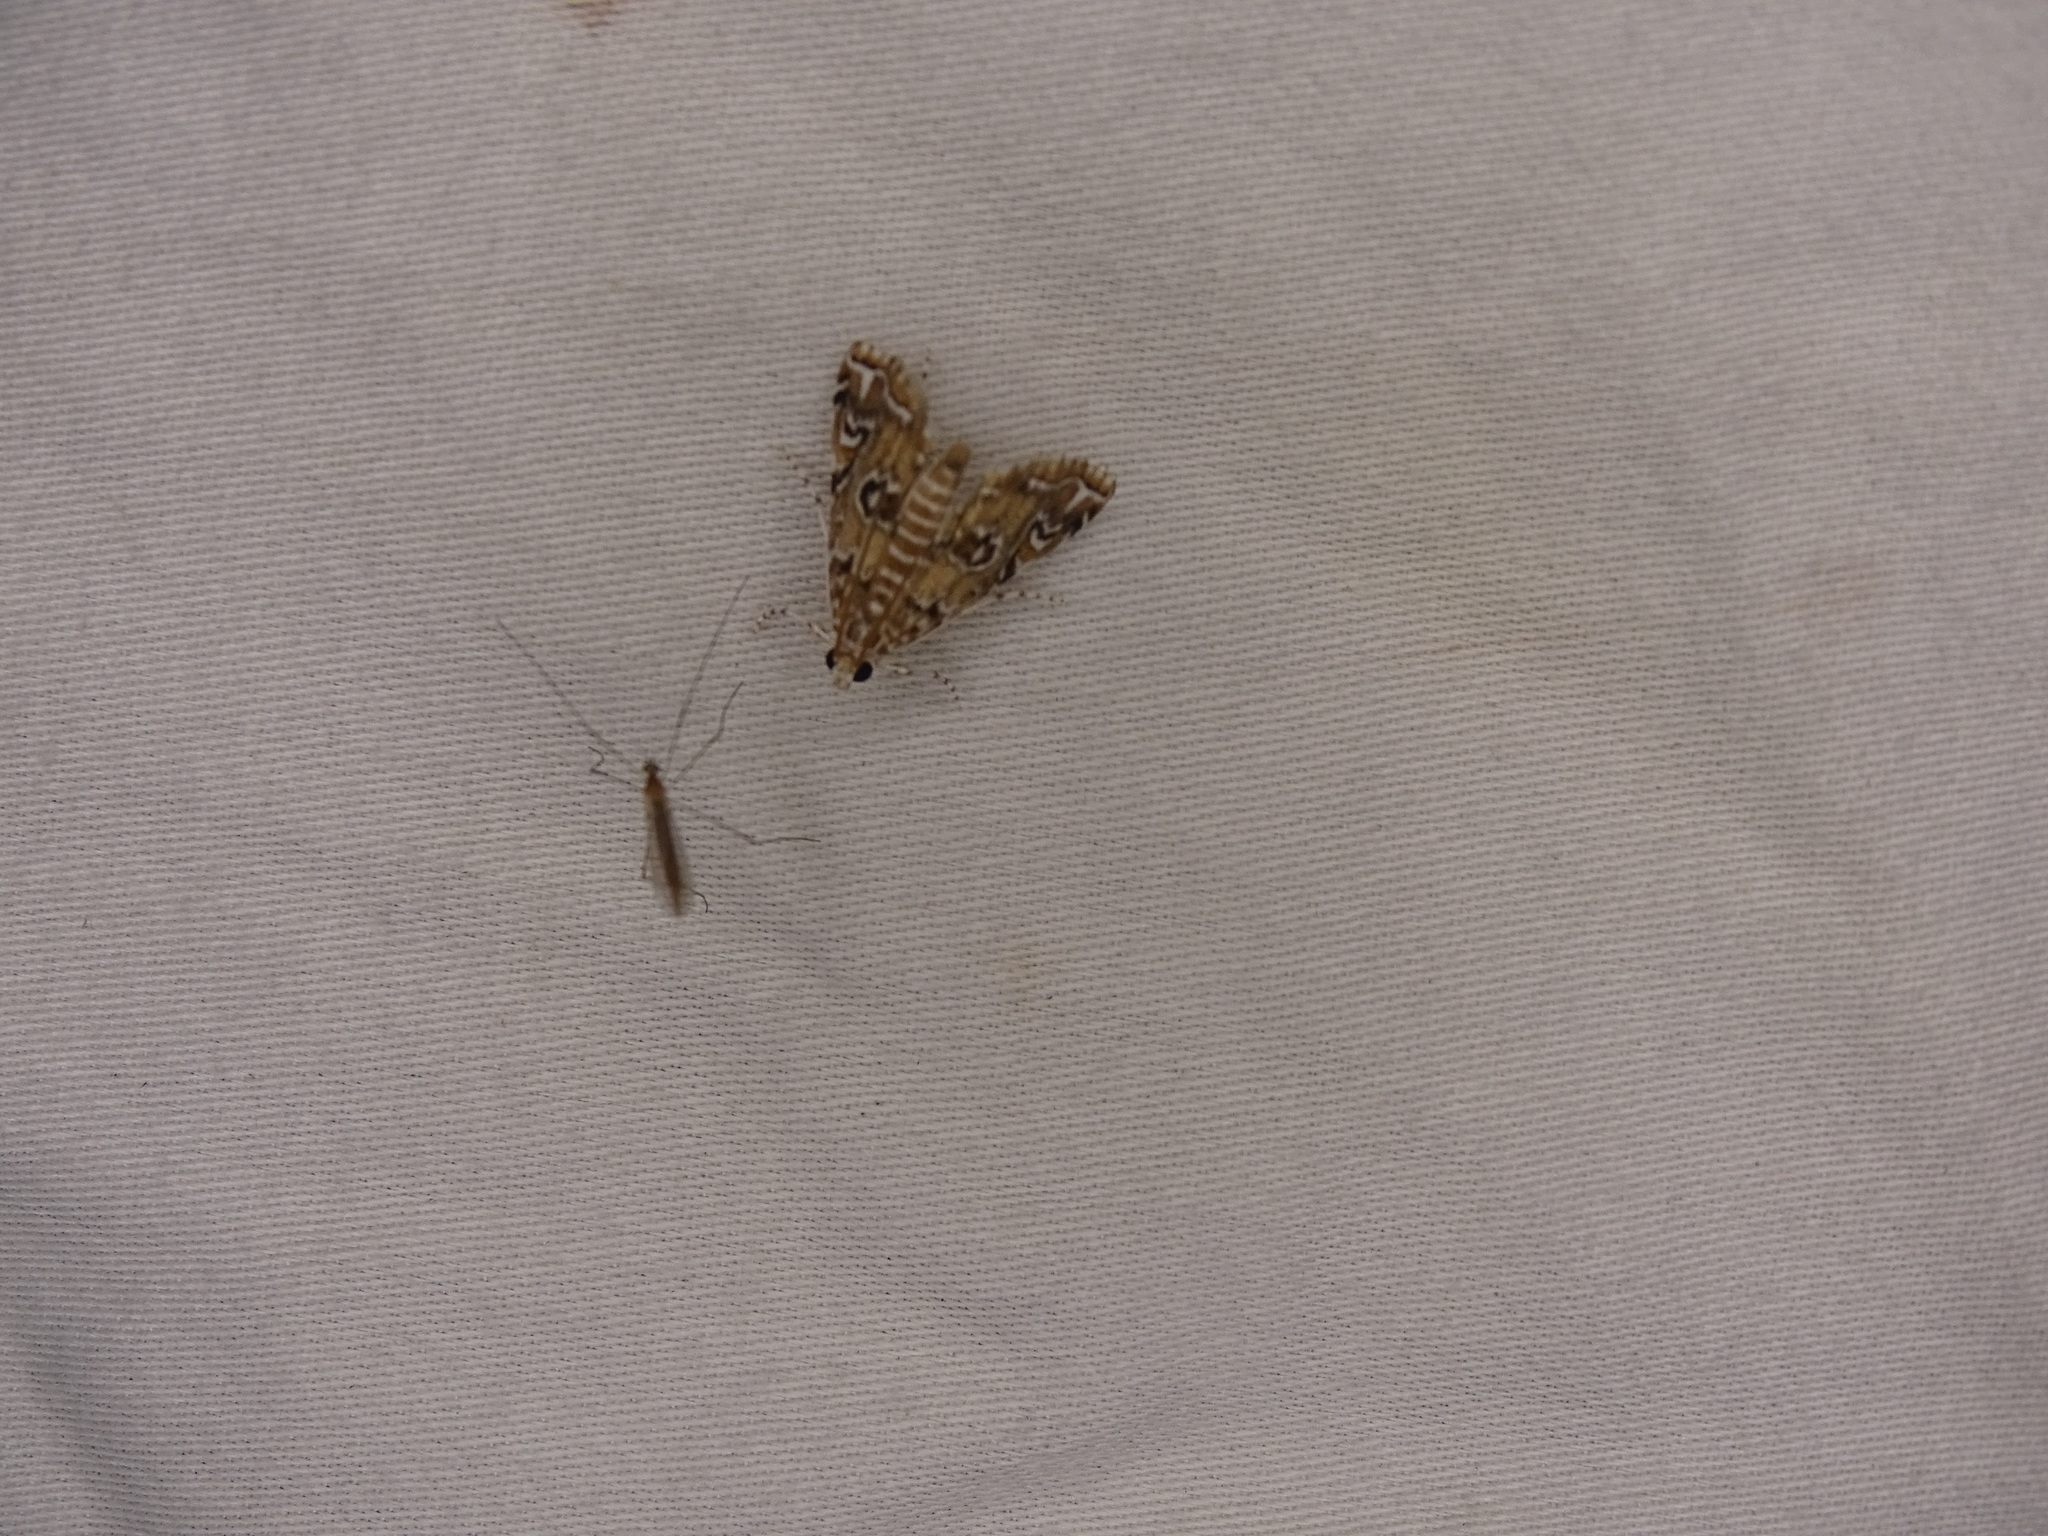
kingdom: Animalia
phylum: Arthropoda
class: Insecta
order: Lepidoptera
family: Crambidae
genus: Elophila
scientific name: Elophila gyralis
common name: Waterlily borer moth
